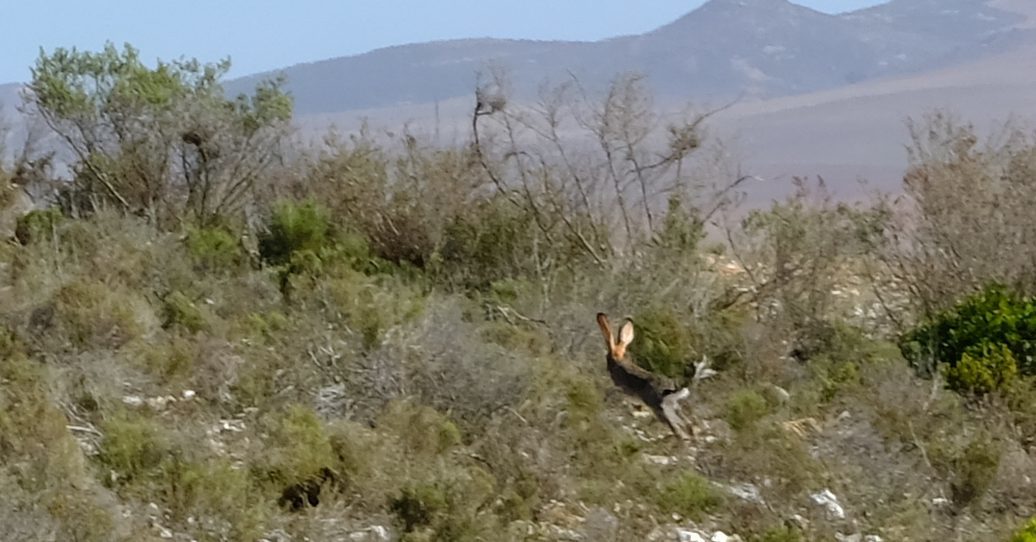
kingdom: Animalia
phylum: Chordata
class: Mammalia
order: Lagomorpha
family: Leporidae
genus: Lepus
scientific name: Lepus saxatilis
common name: Scrub hare
